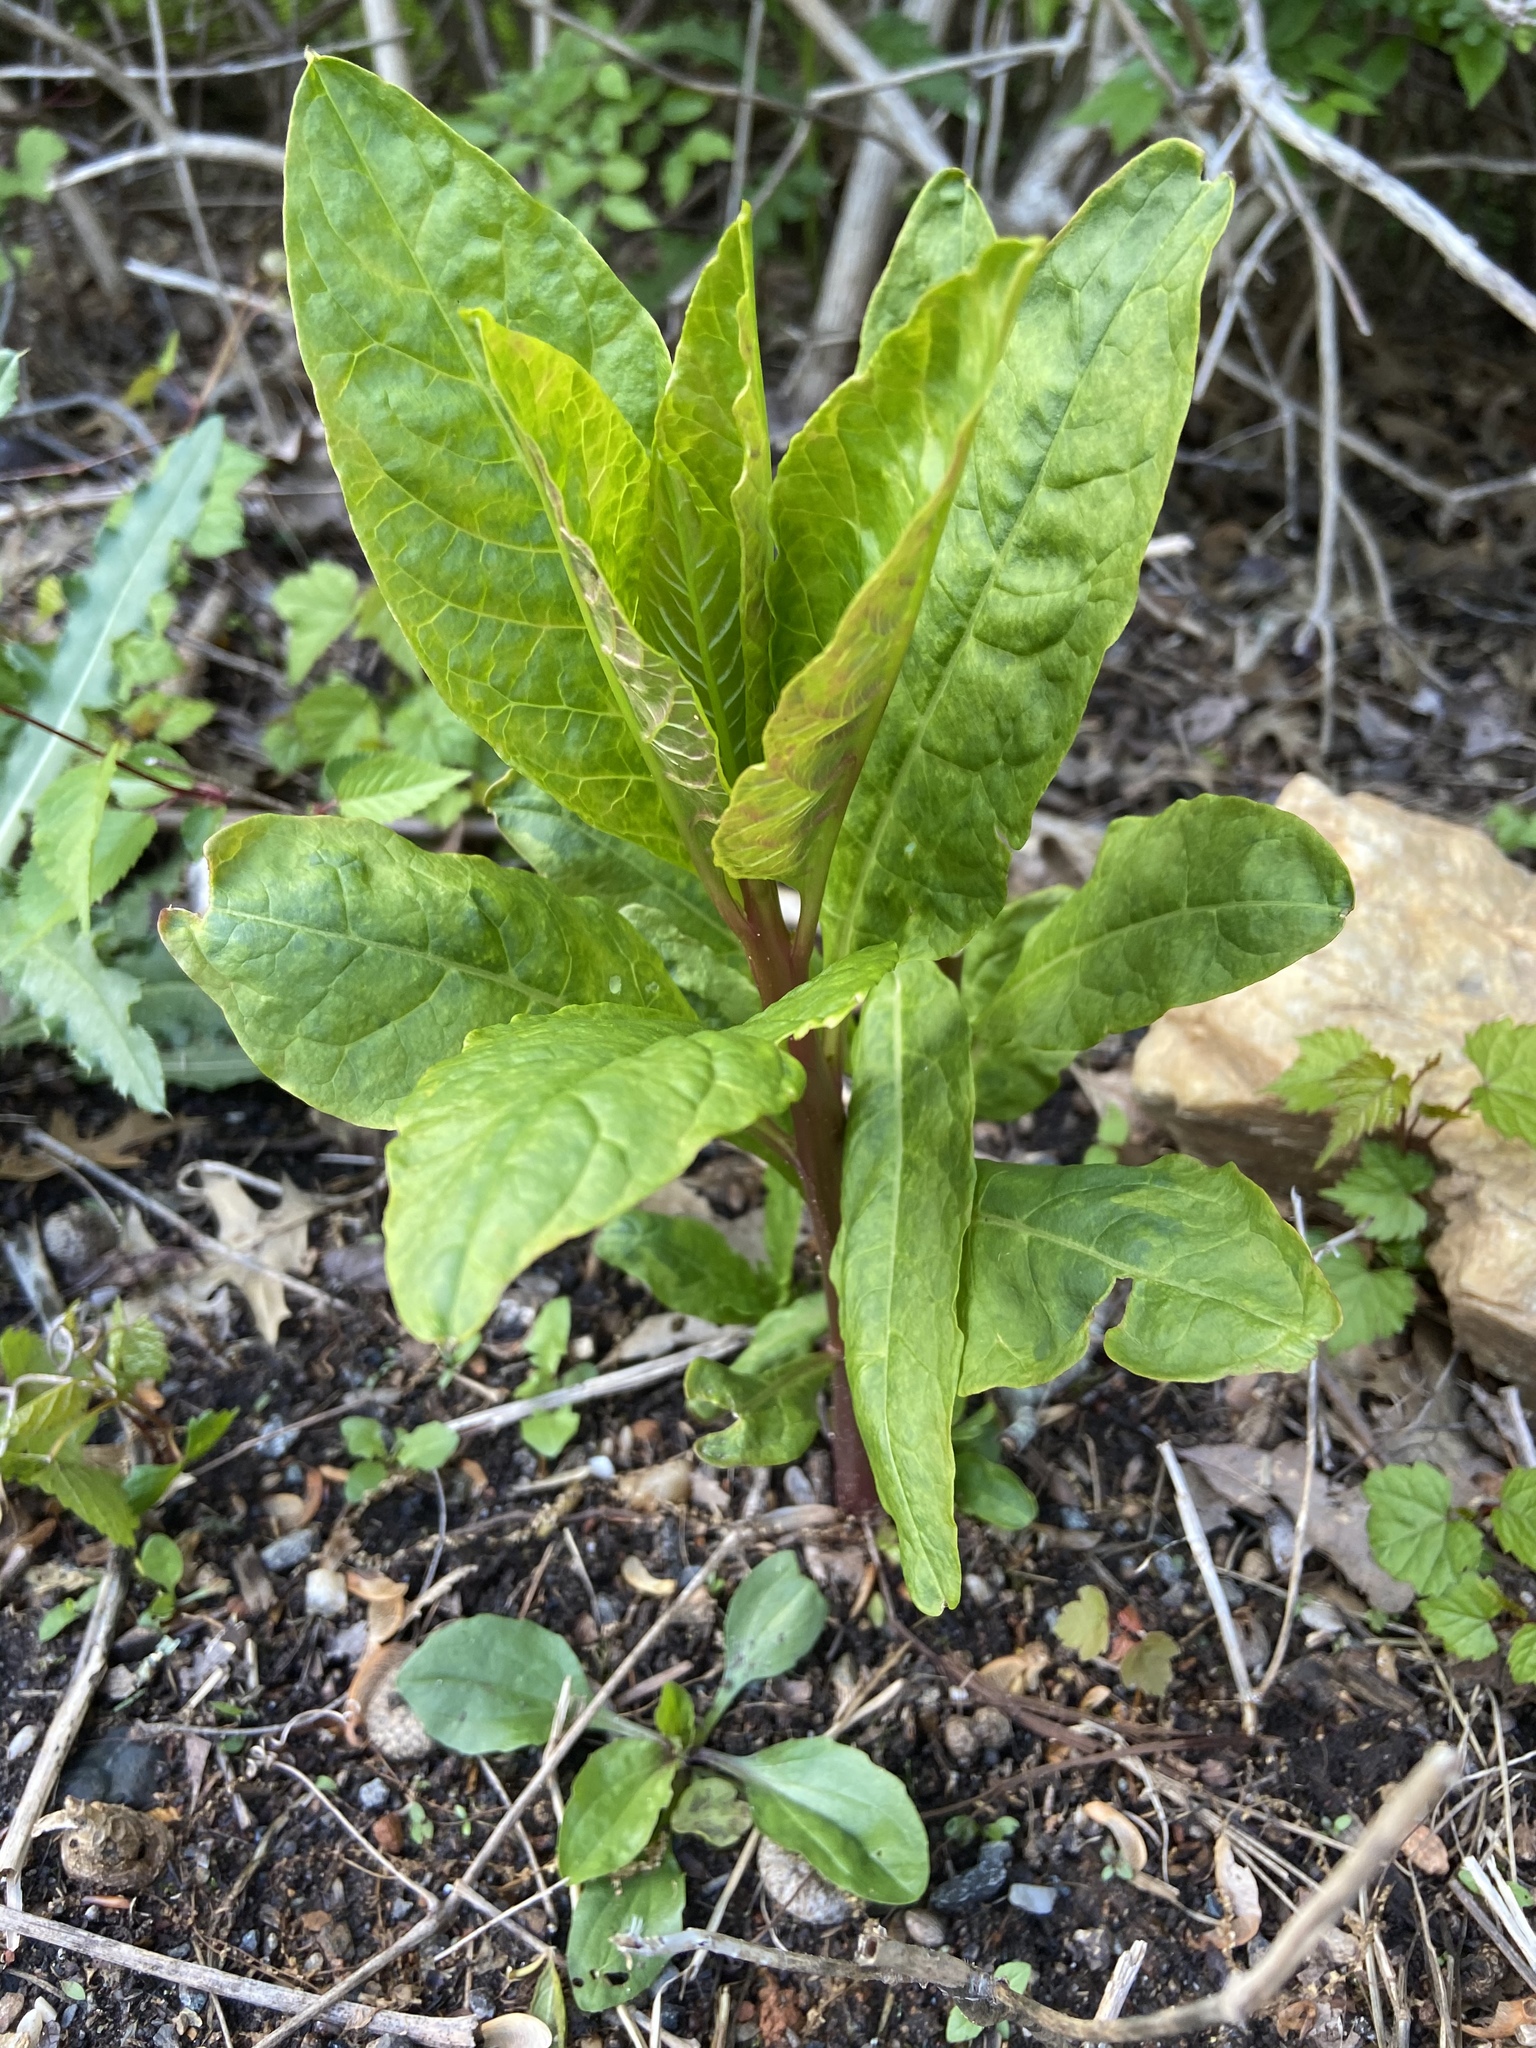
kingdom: Plantae
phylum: Tracheophyta
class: Magnoliopsida
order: Caryophyllales
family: Phytolaccaceae
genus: Phytolacca
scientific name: Phytolacca americana
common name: American pokeweed
